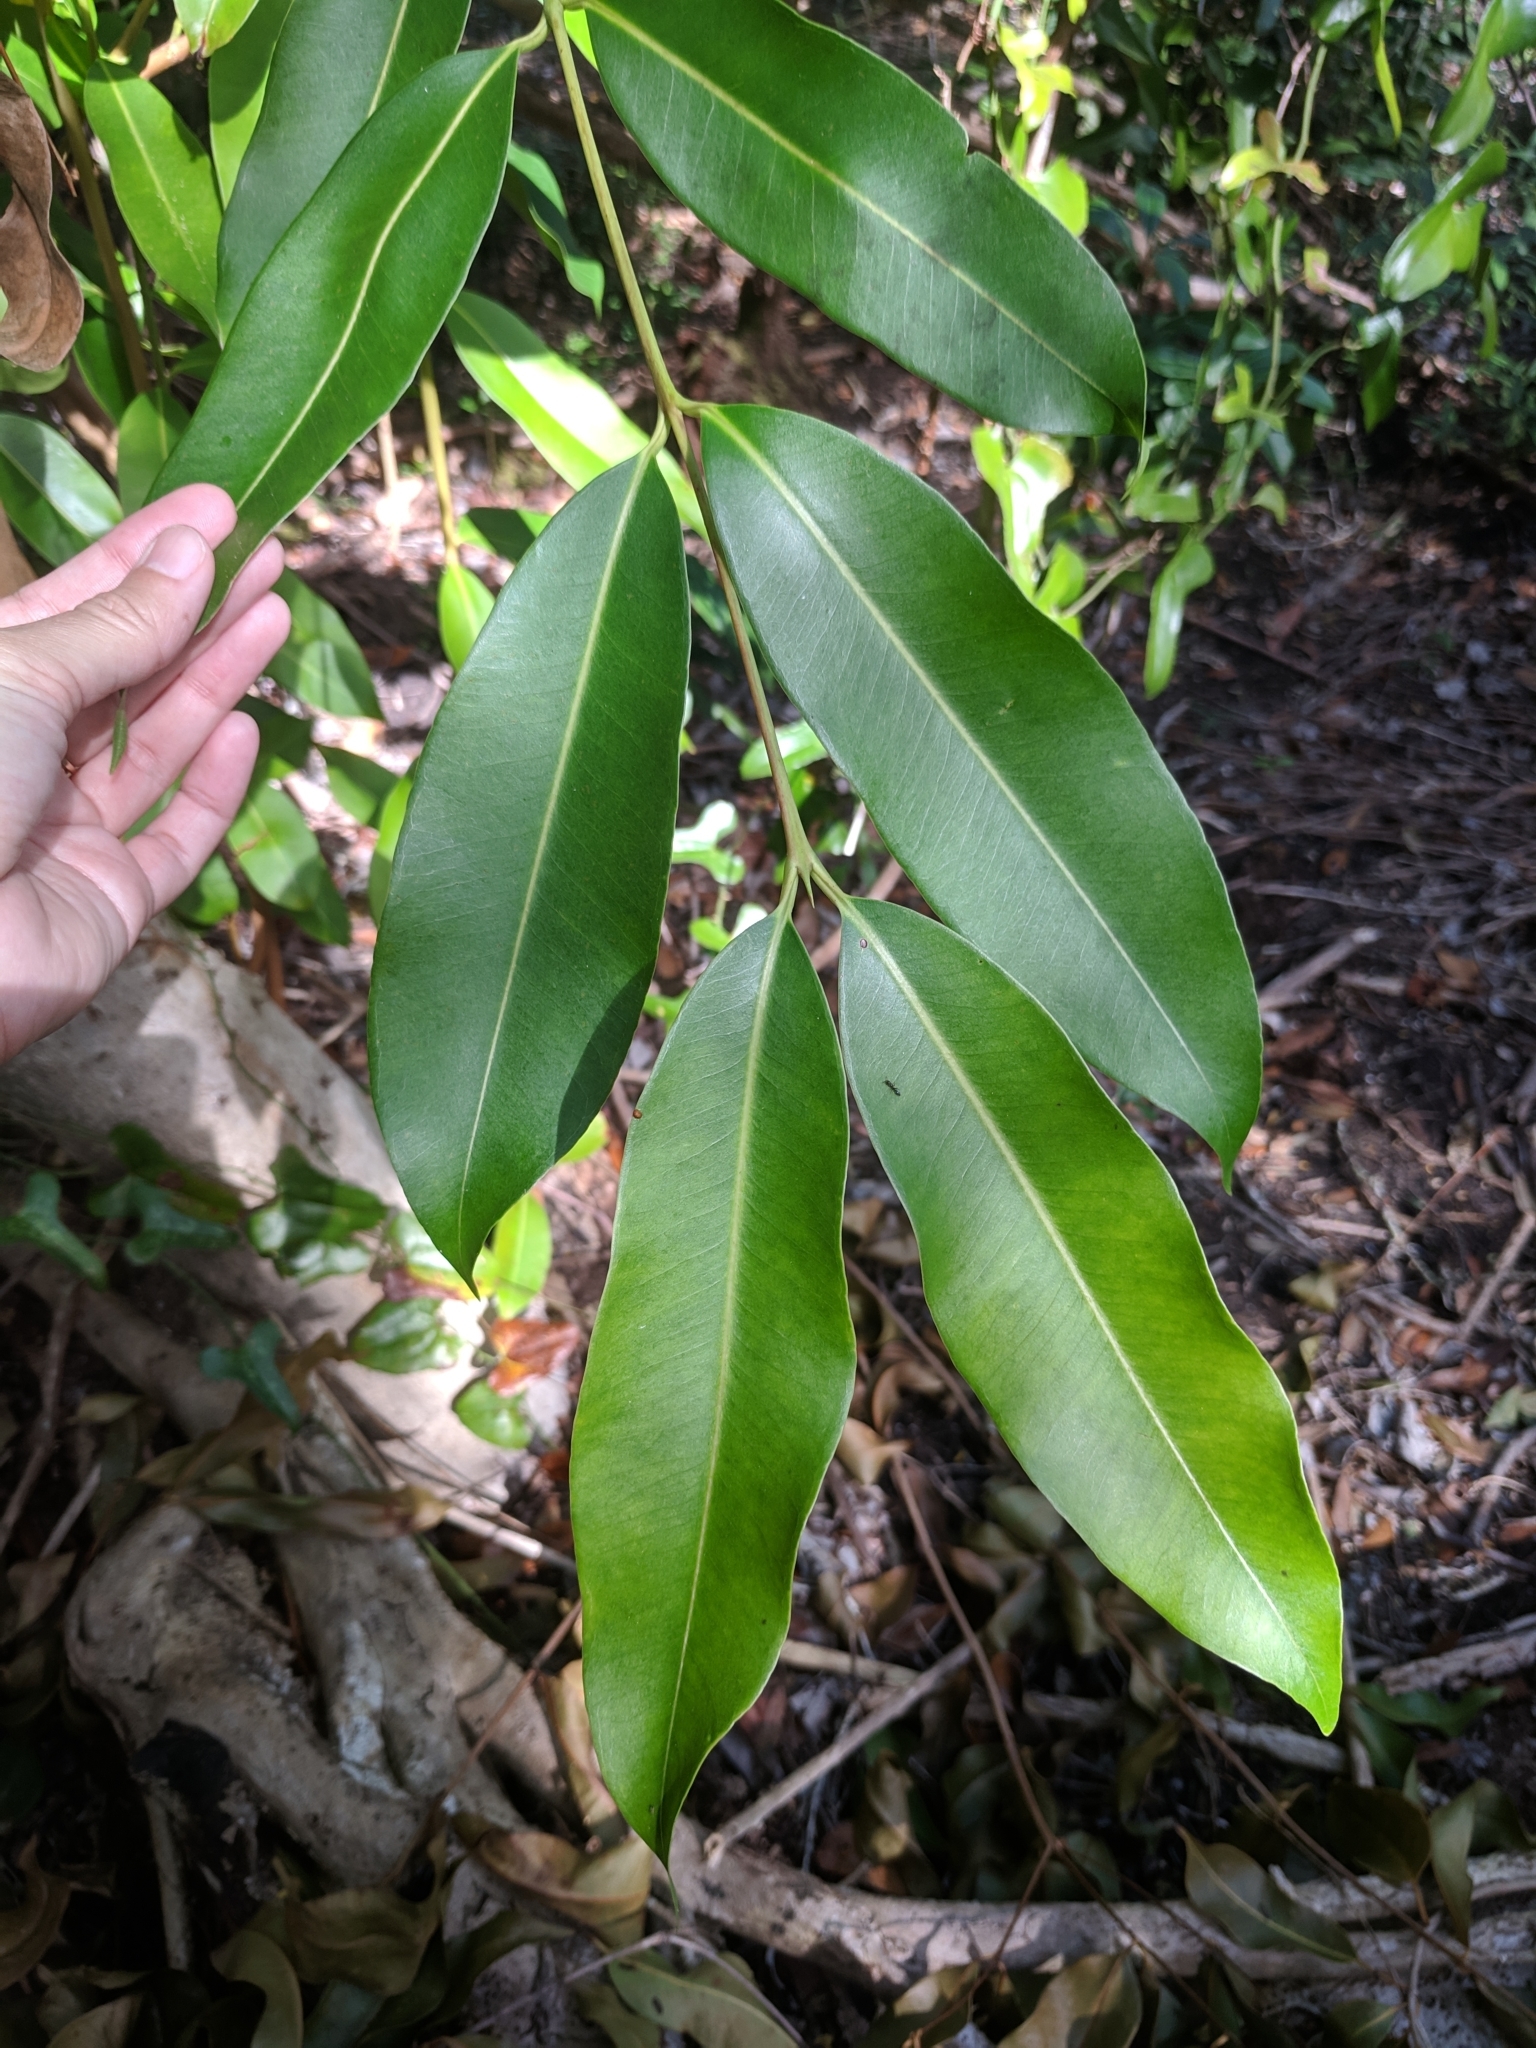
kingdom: Plantae
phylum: Tracheophyta
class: Magnoliopsida
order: Myrtales
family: Myrtaceae
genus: Syzygium
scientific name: Syzygium cumini
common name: Java plum
